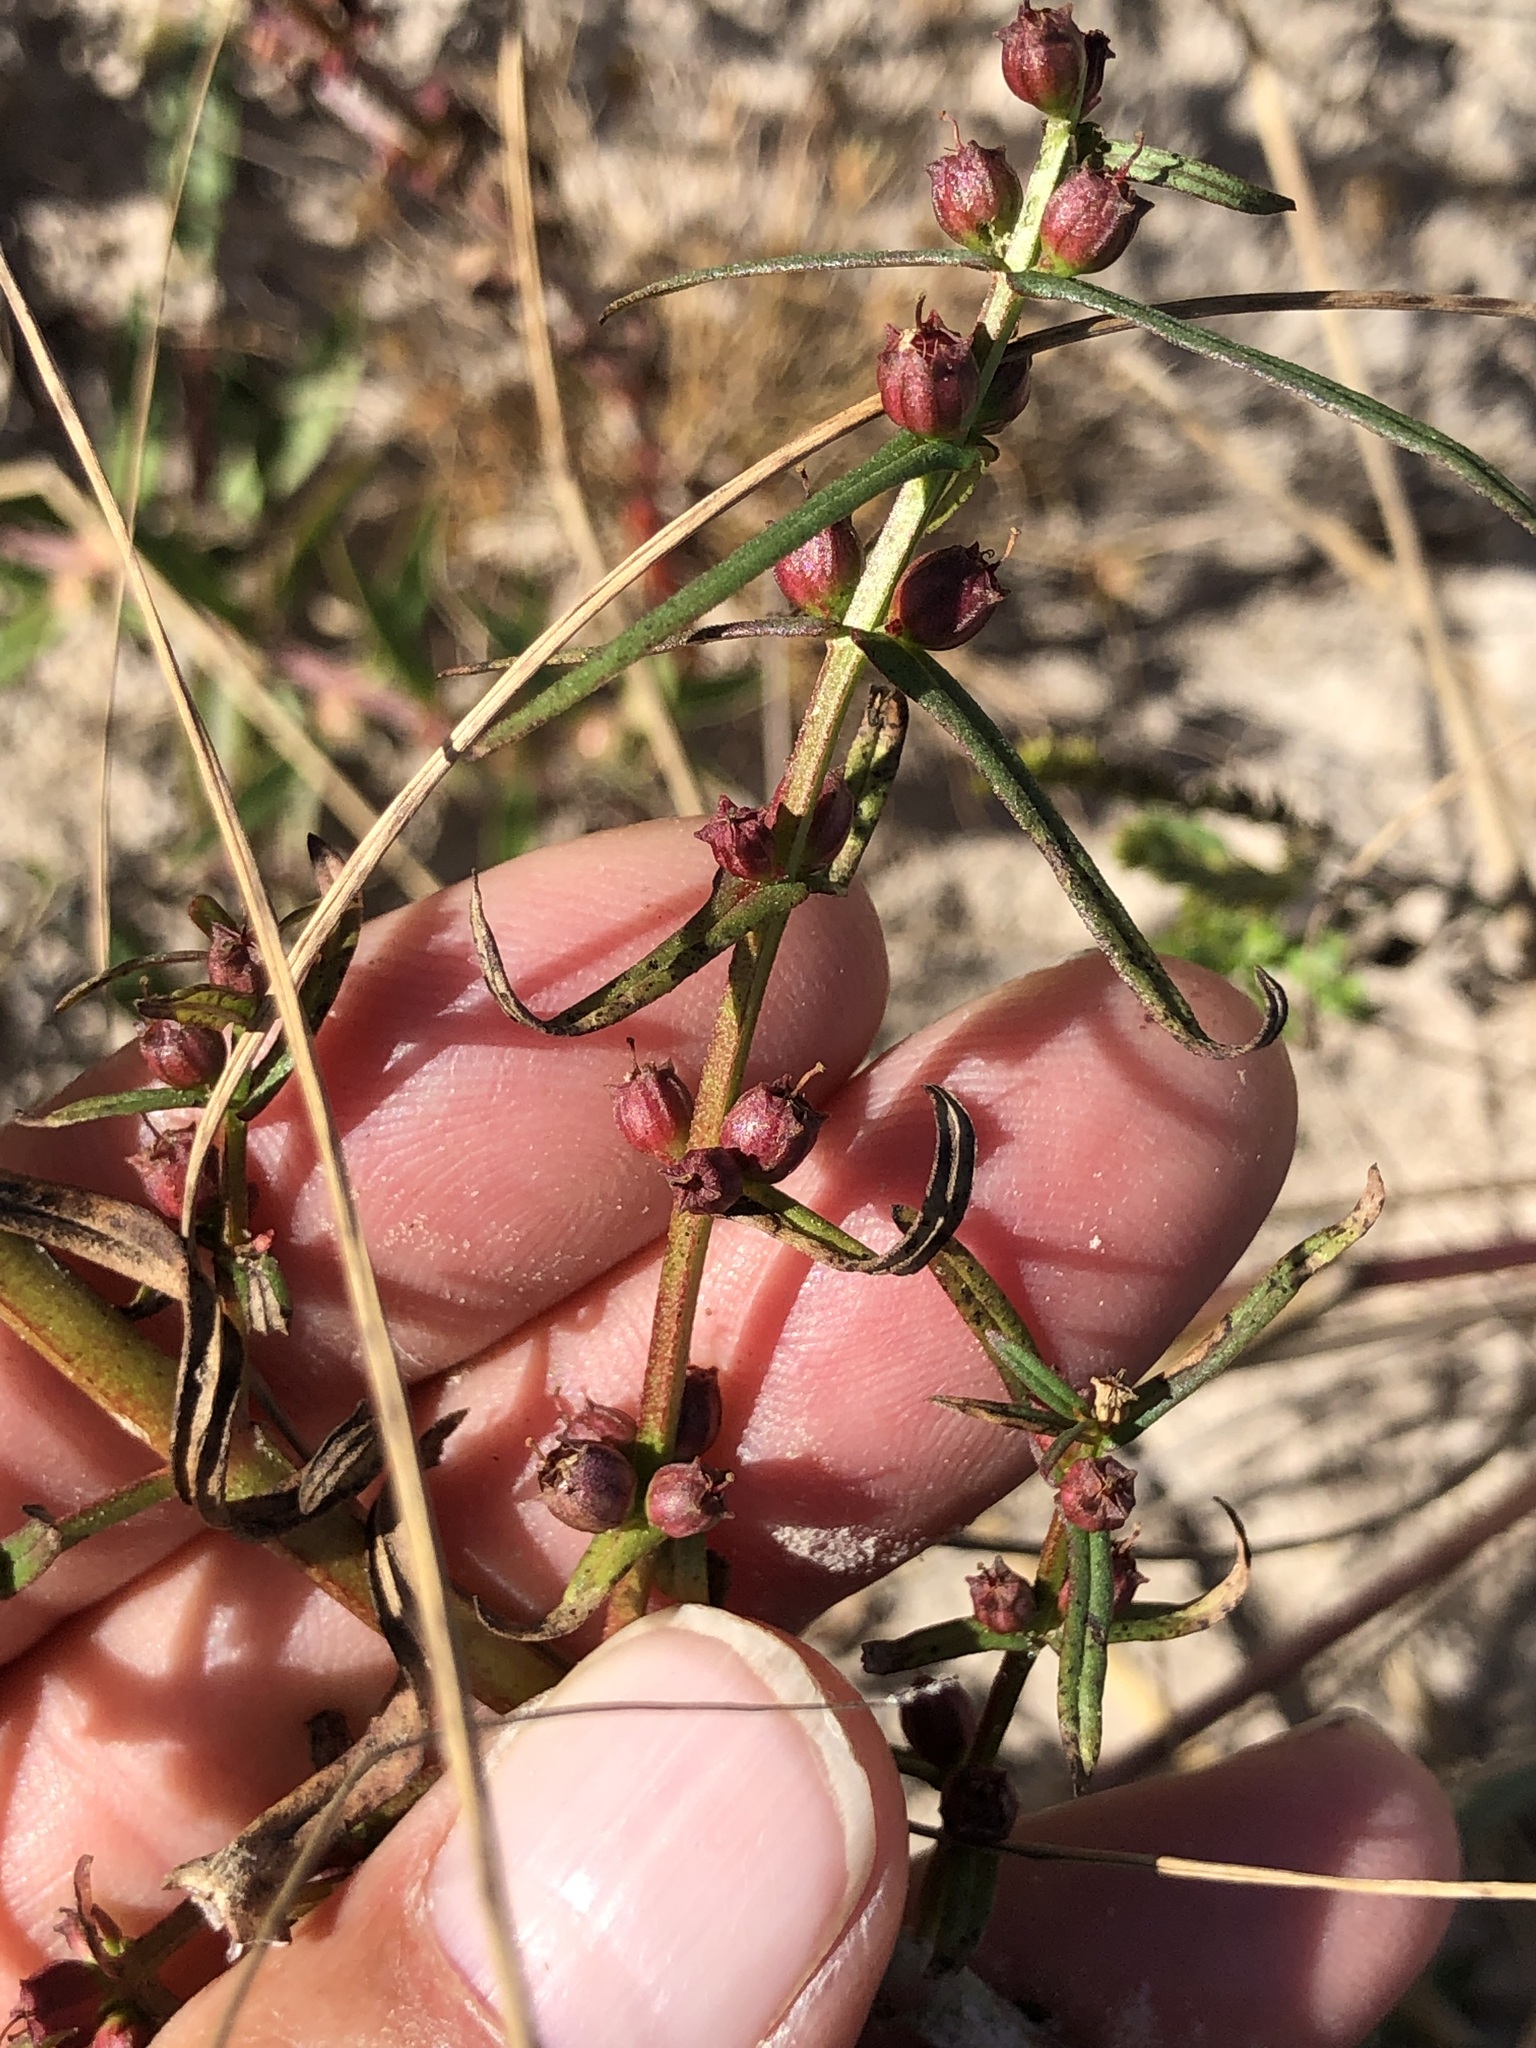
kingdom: Plantae
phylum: Tracheophyta
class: Magnoliopsida
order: Myrtales
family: Lythraceae
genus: Ammannia
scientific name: Ammannia coccinea
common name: Valley redstem
